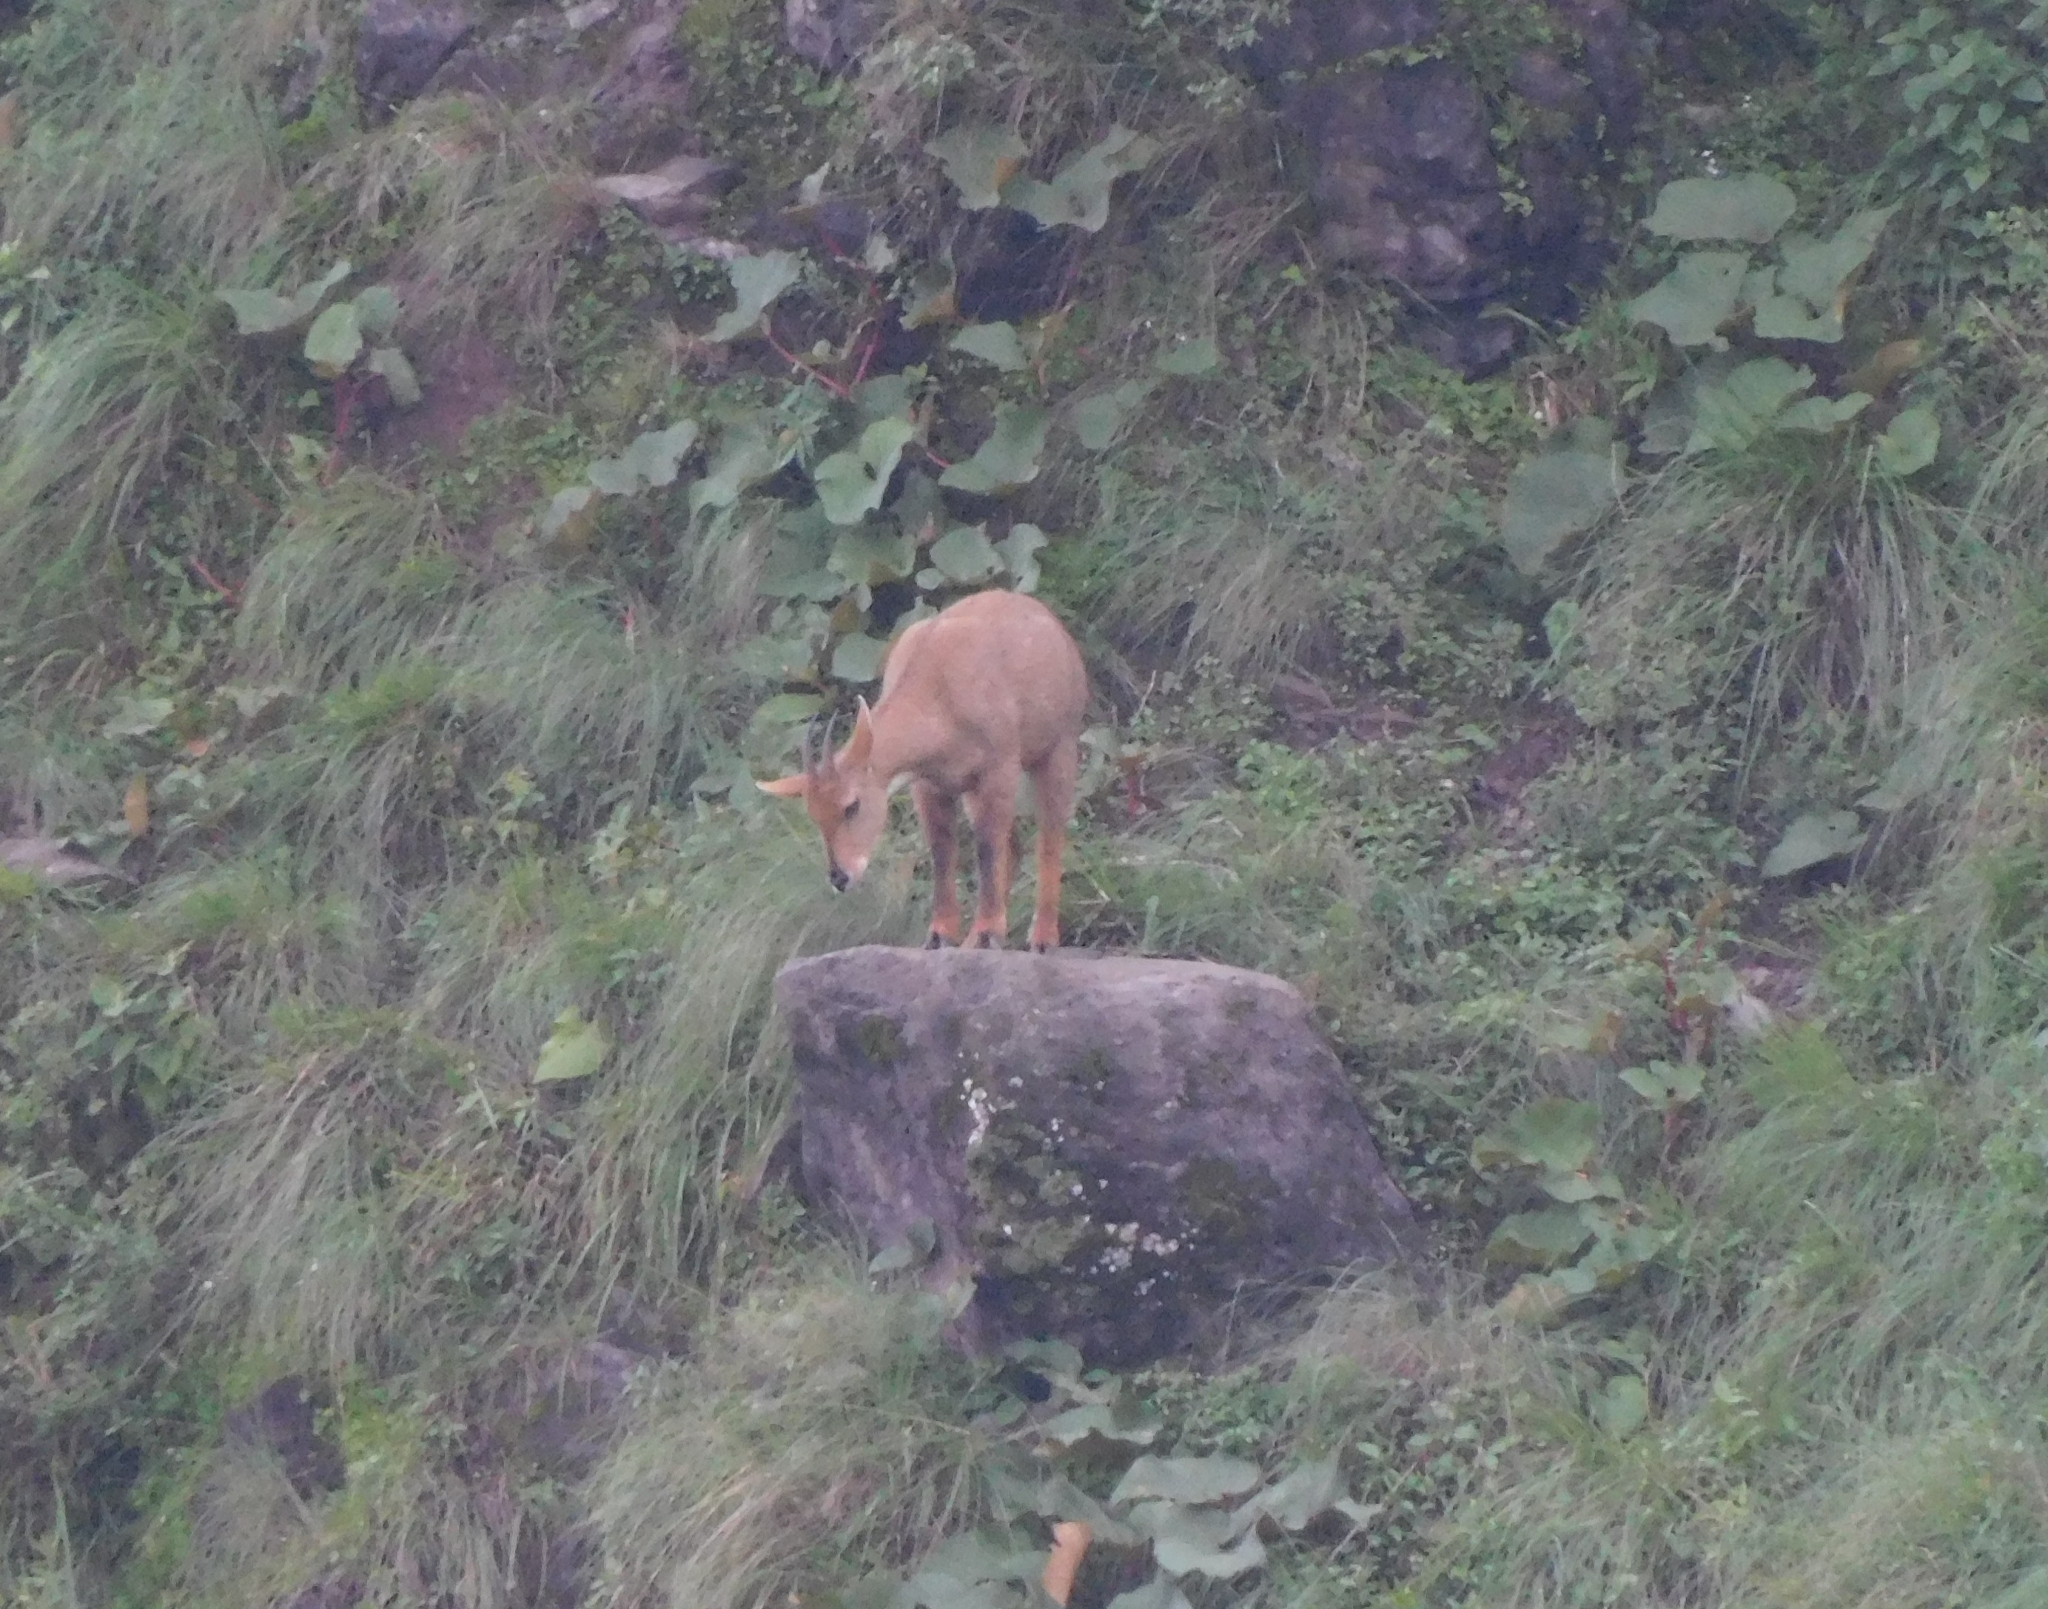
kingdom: Animalia
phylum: Chordata
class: Mammalia
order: Artiodactyla
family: Bovidae
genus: Naemorhedus
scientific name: Naemorhedus goral
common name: Goral
